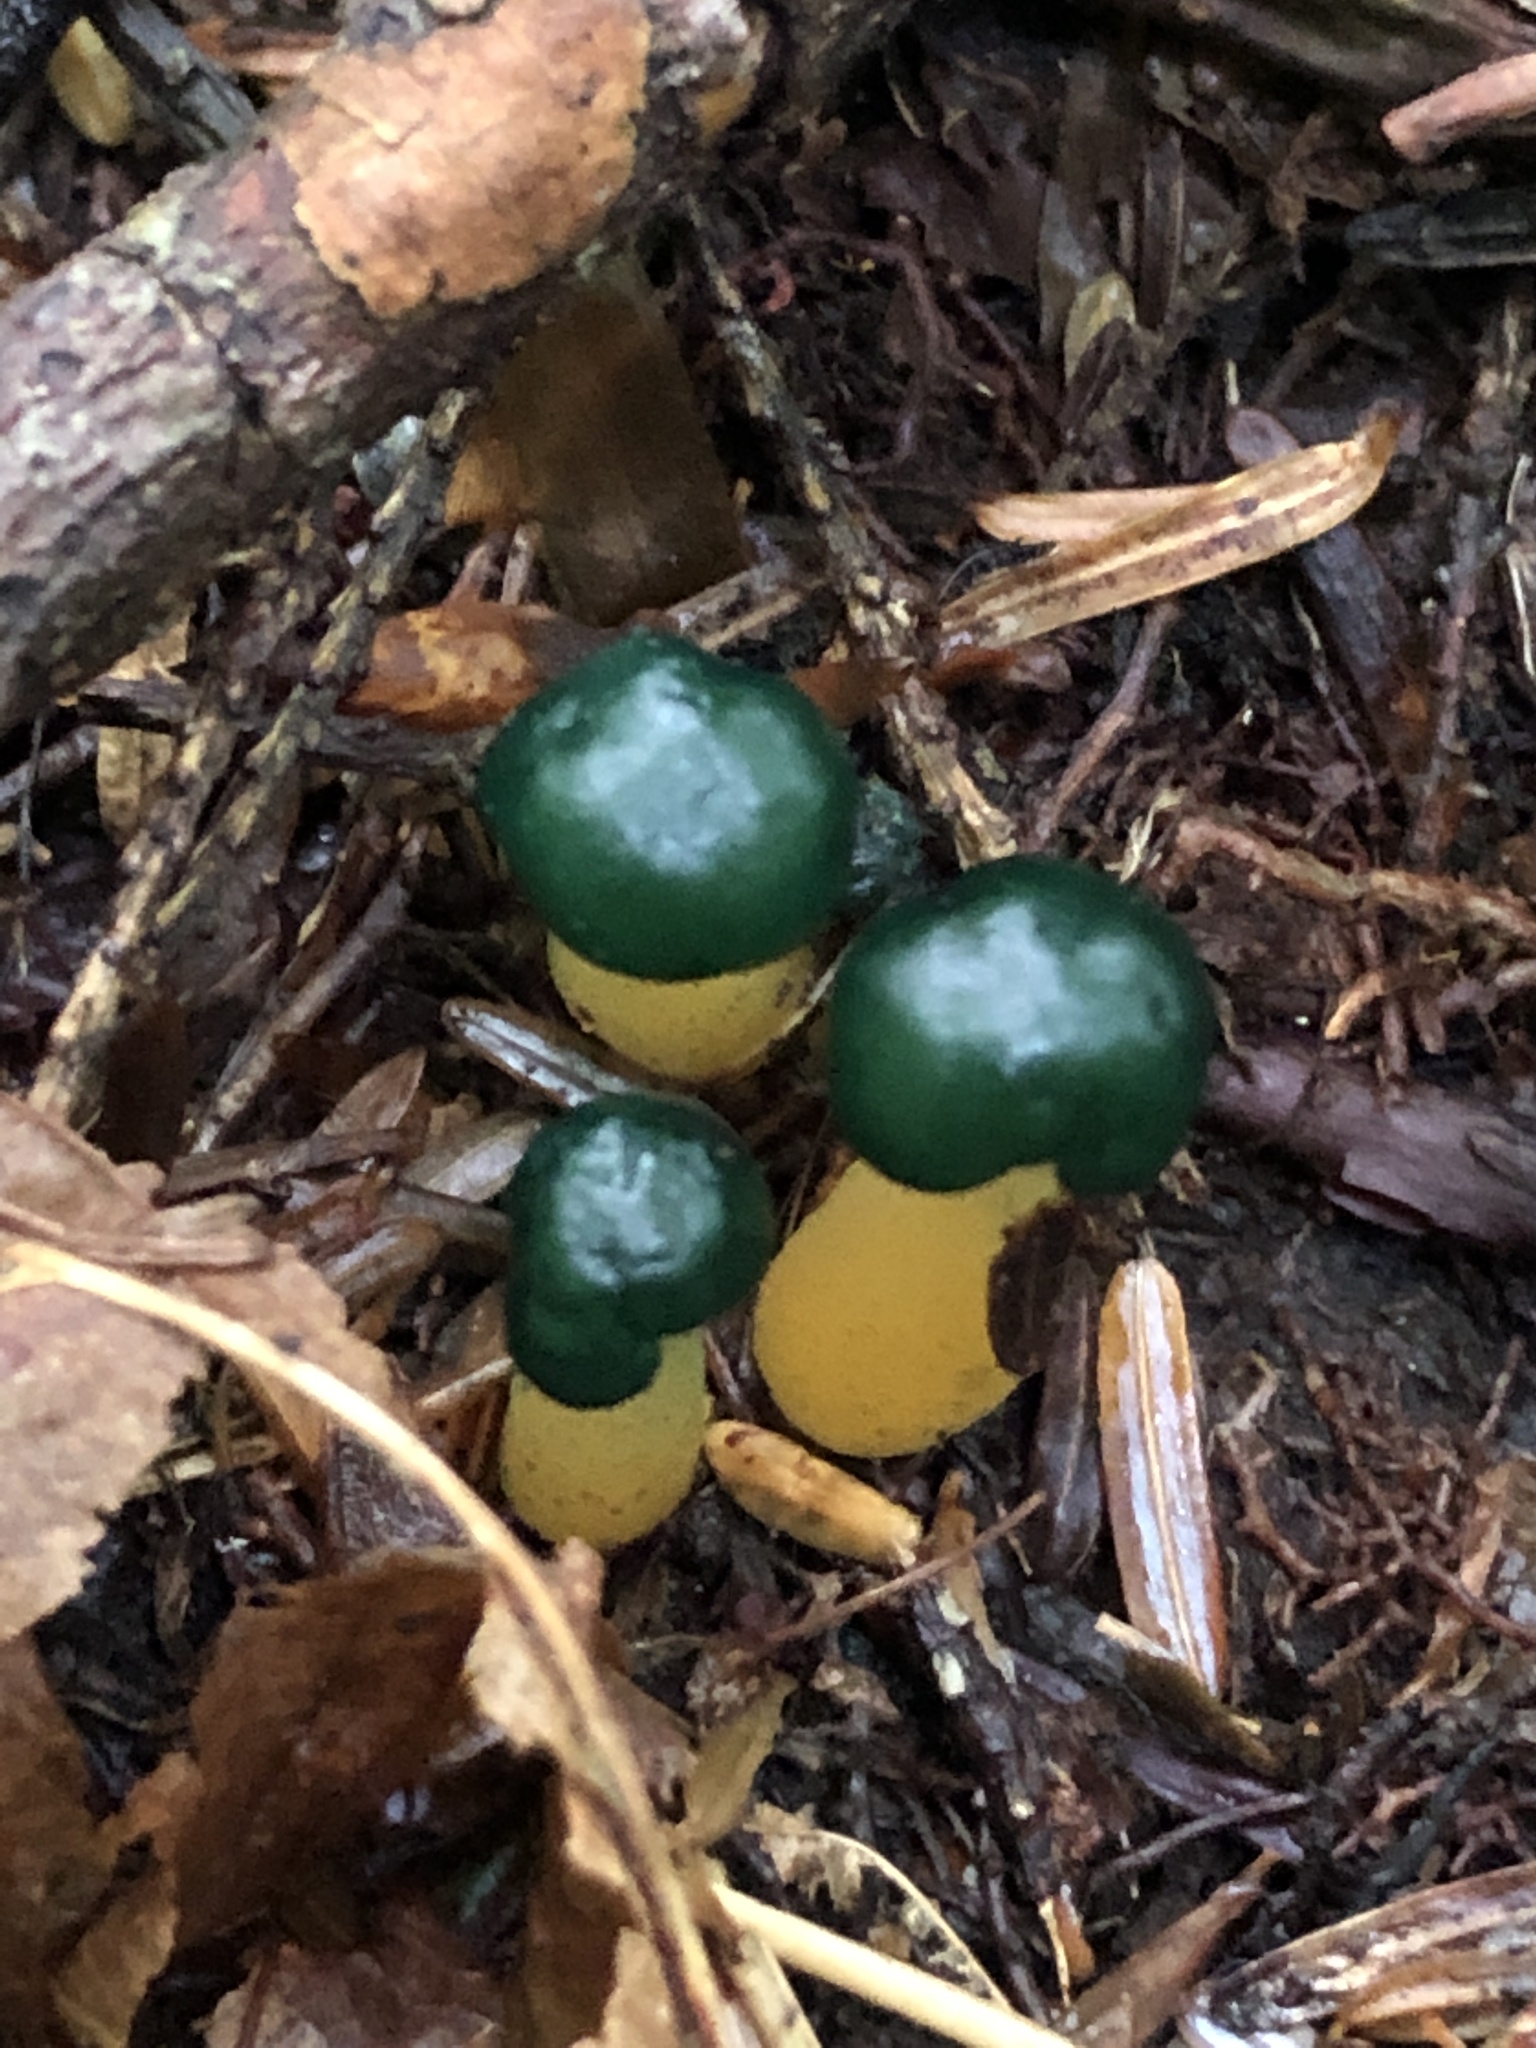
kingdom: Fungi
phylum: Ascomycota
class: Leotiomycetes
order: Leotiales
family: Leotiaceae
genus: Leotia
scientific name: Leotia lubrica
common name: Jellybaby
